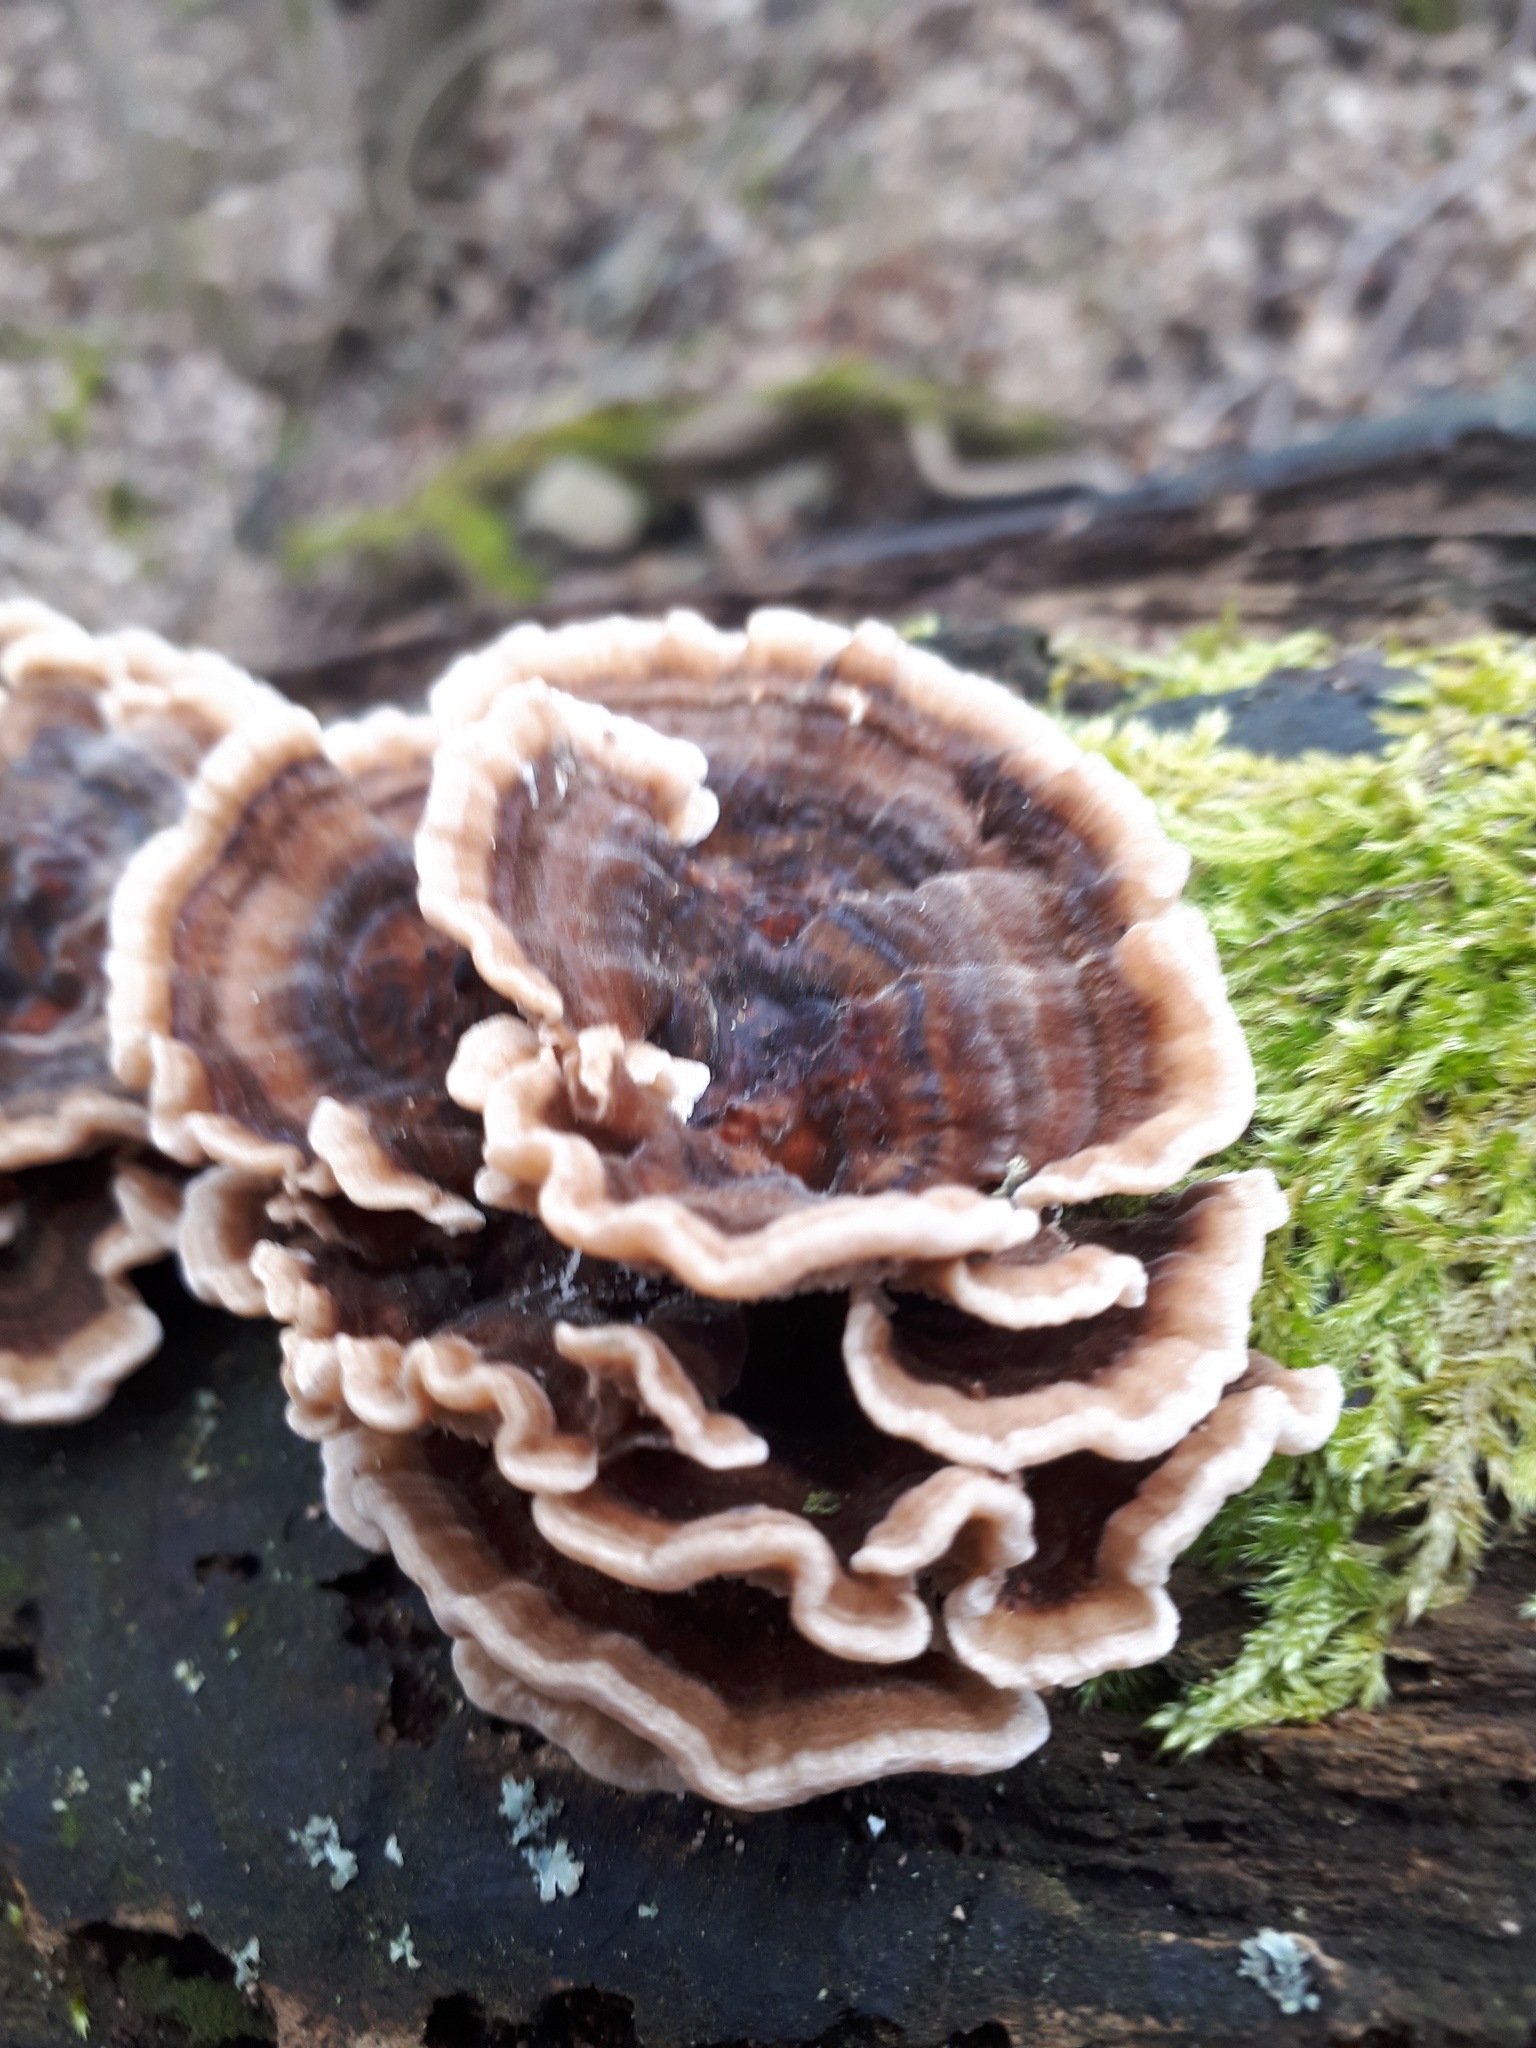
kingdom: Fungi
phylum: Basidiomycota
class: Agaricomycetes
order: Polyporales
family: Polyporaceae
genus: Trametes
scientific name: Trametes versicolor
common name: Turkeytail
